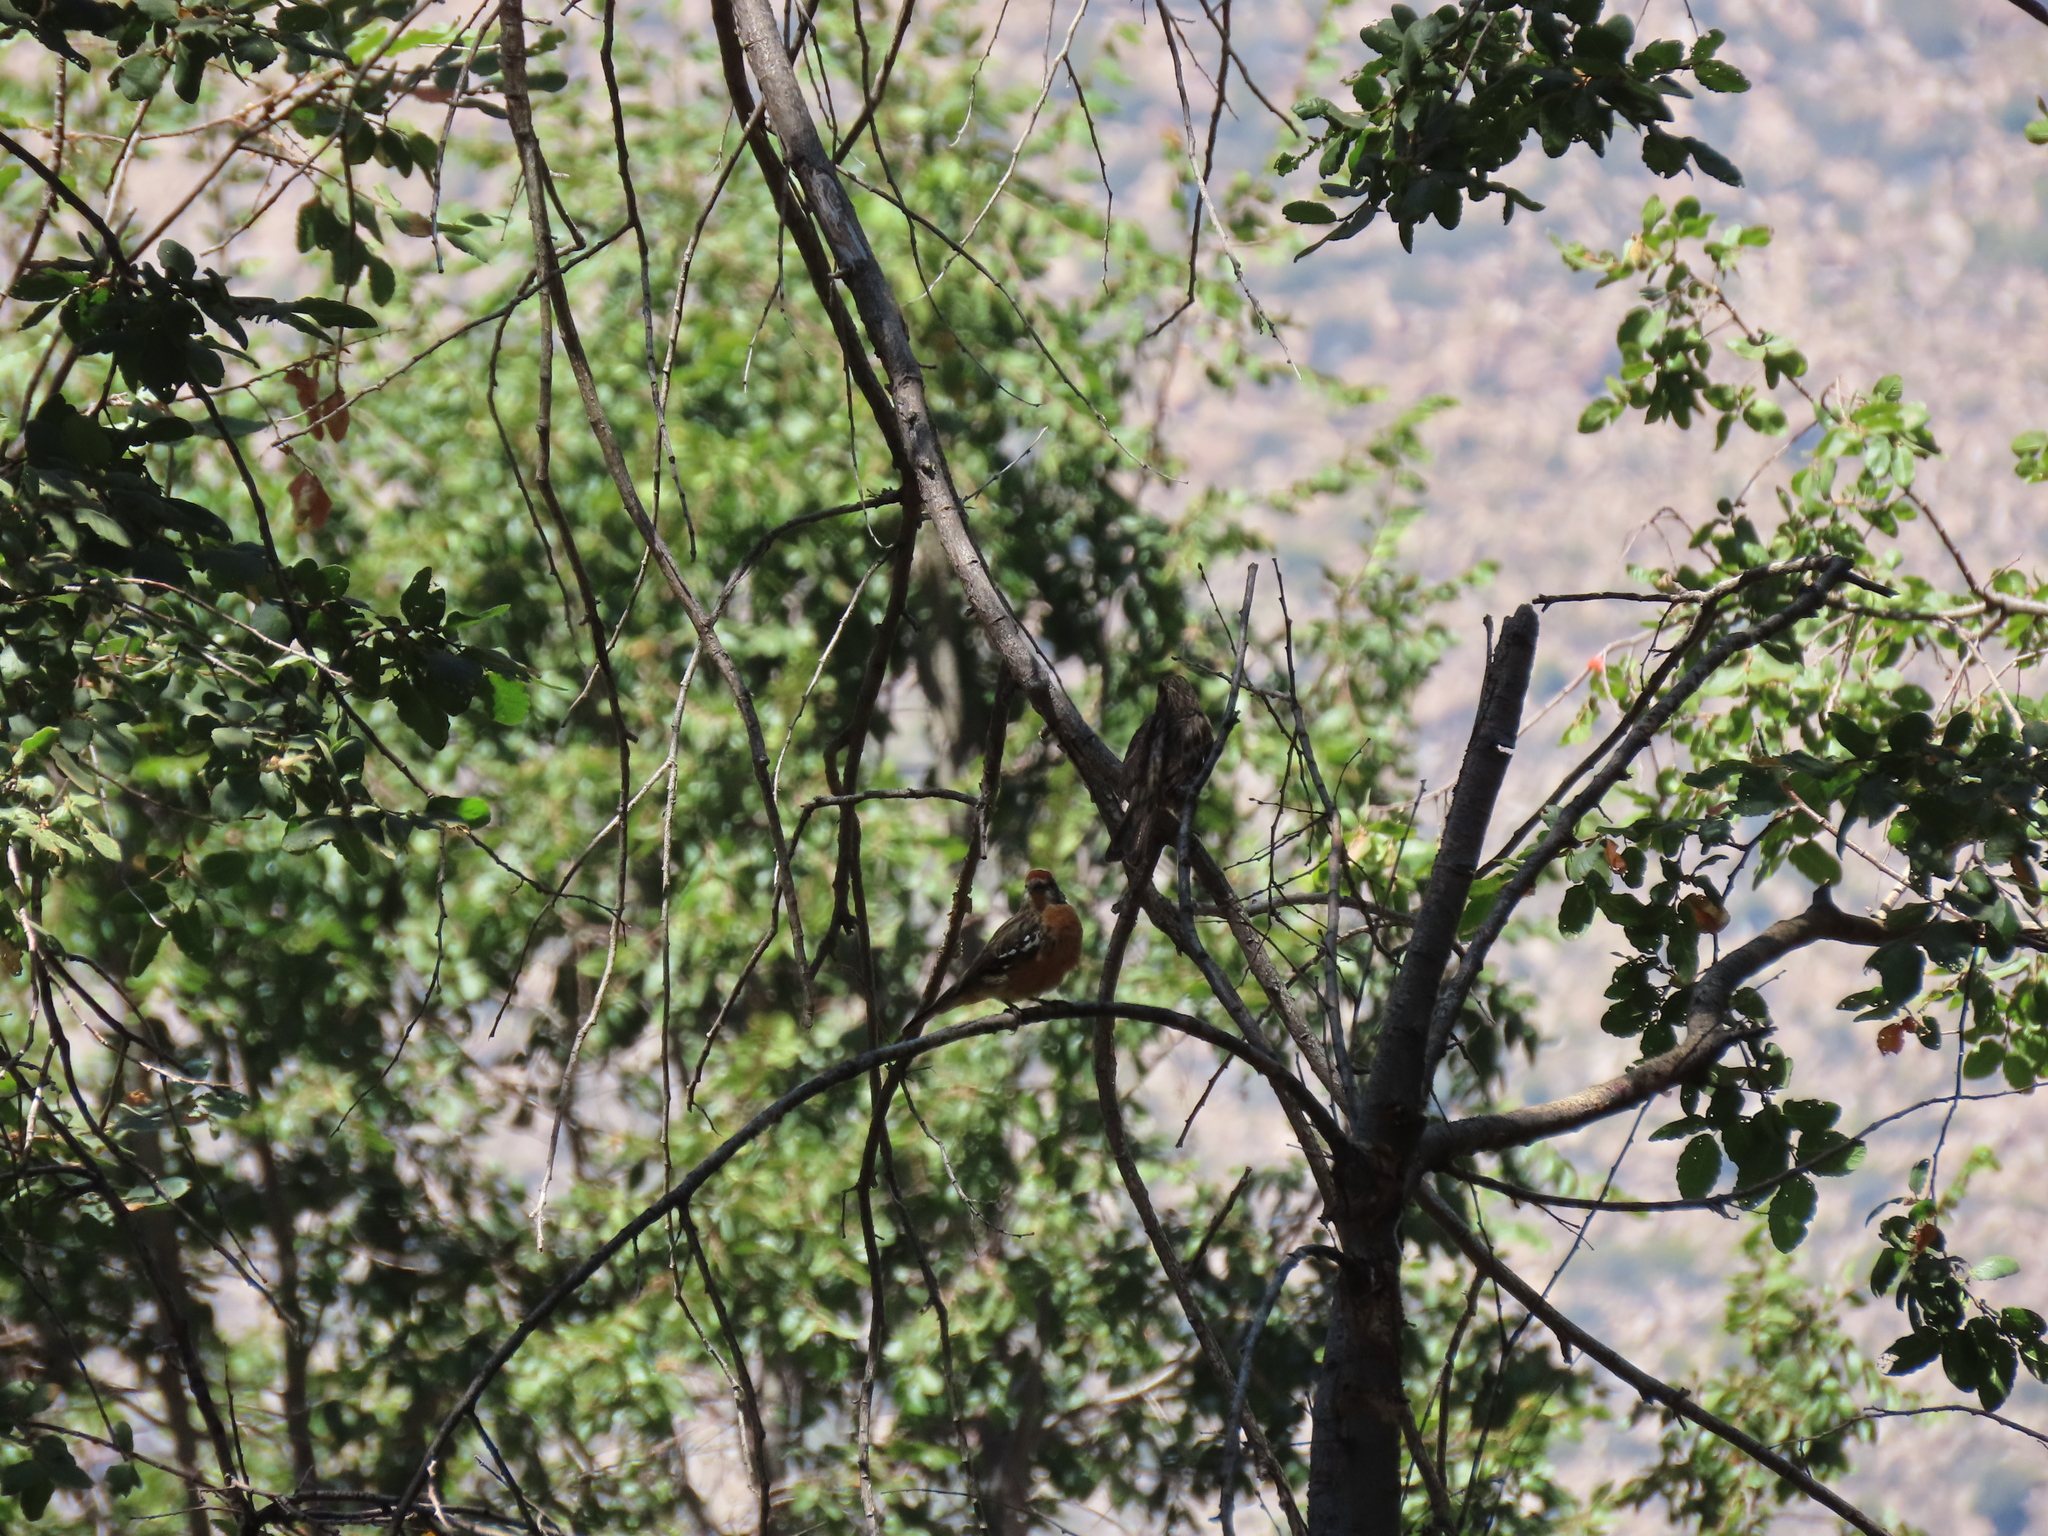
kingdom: Animalia
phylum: Chordata
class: Aves
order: Passeriformes
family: Cotingidae
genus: Phytotoma
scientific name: Phytotoma rara
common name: Rufous-tailed plantcutter
